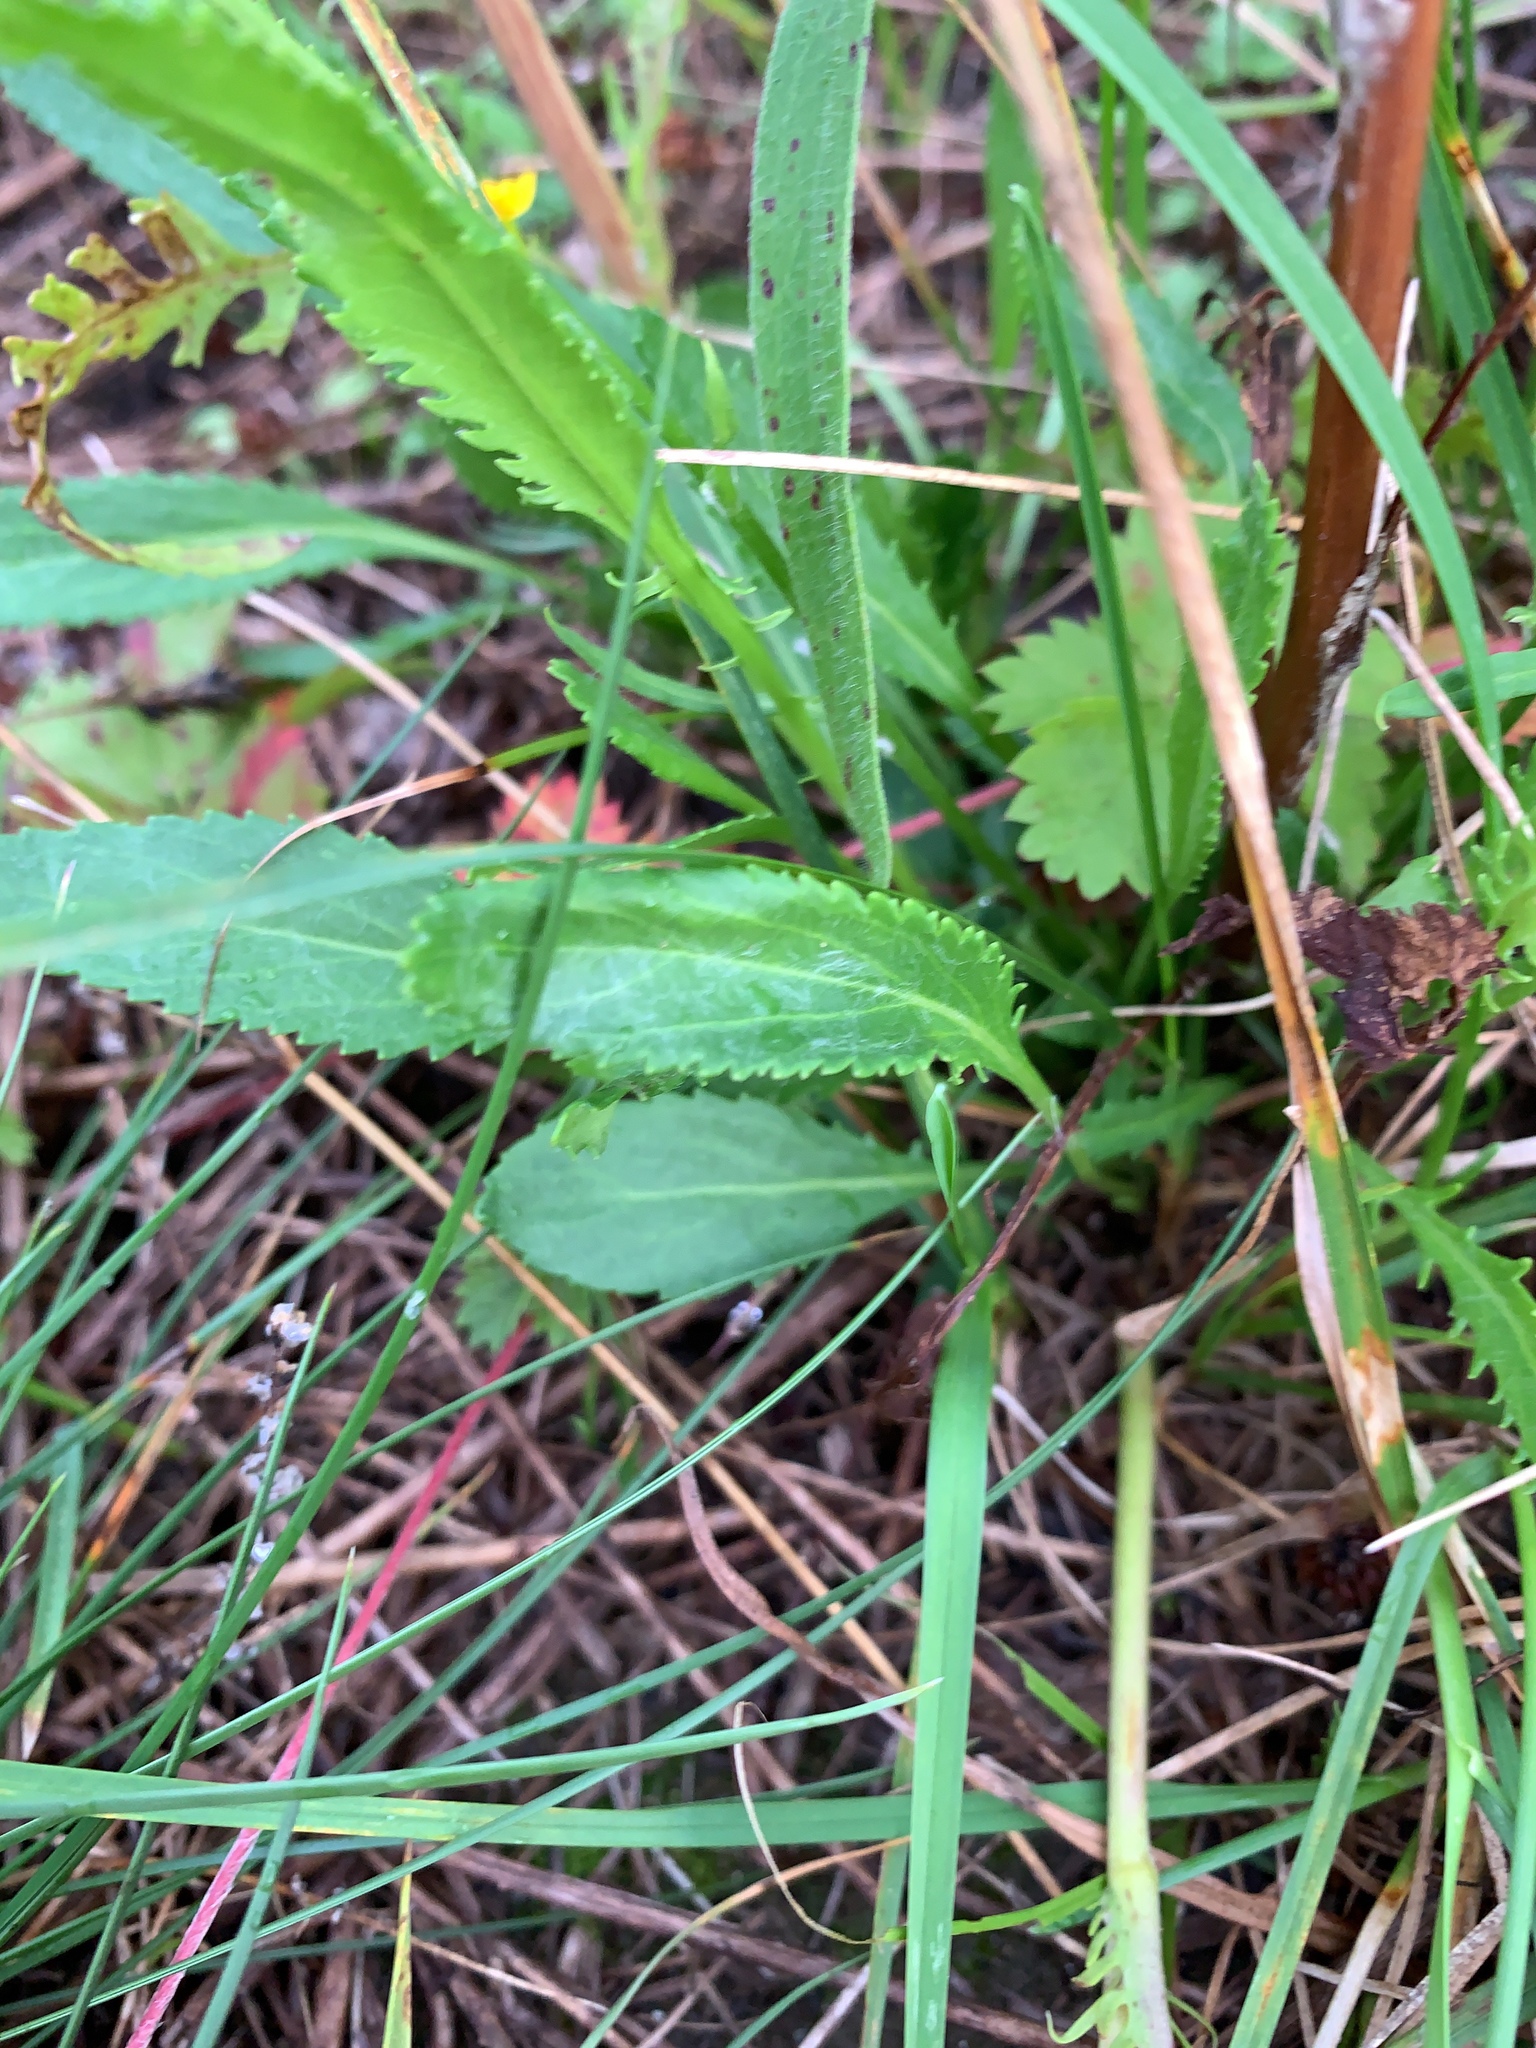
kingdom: Plantae
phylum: Tracheophyta
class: Magnoliopsida
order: Asterales
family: Asteraceae
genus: Packera
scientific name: Packera paupercula
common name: Balsam groundsel
